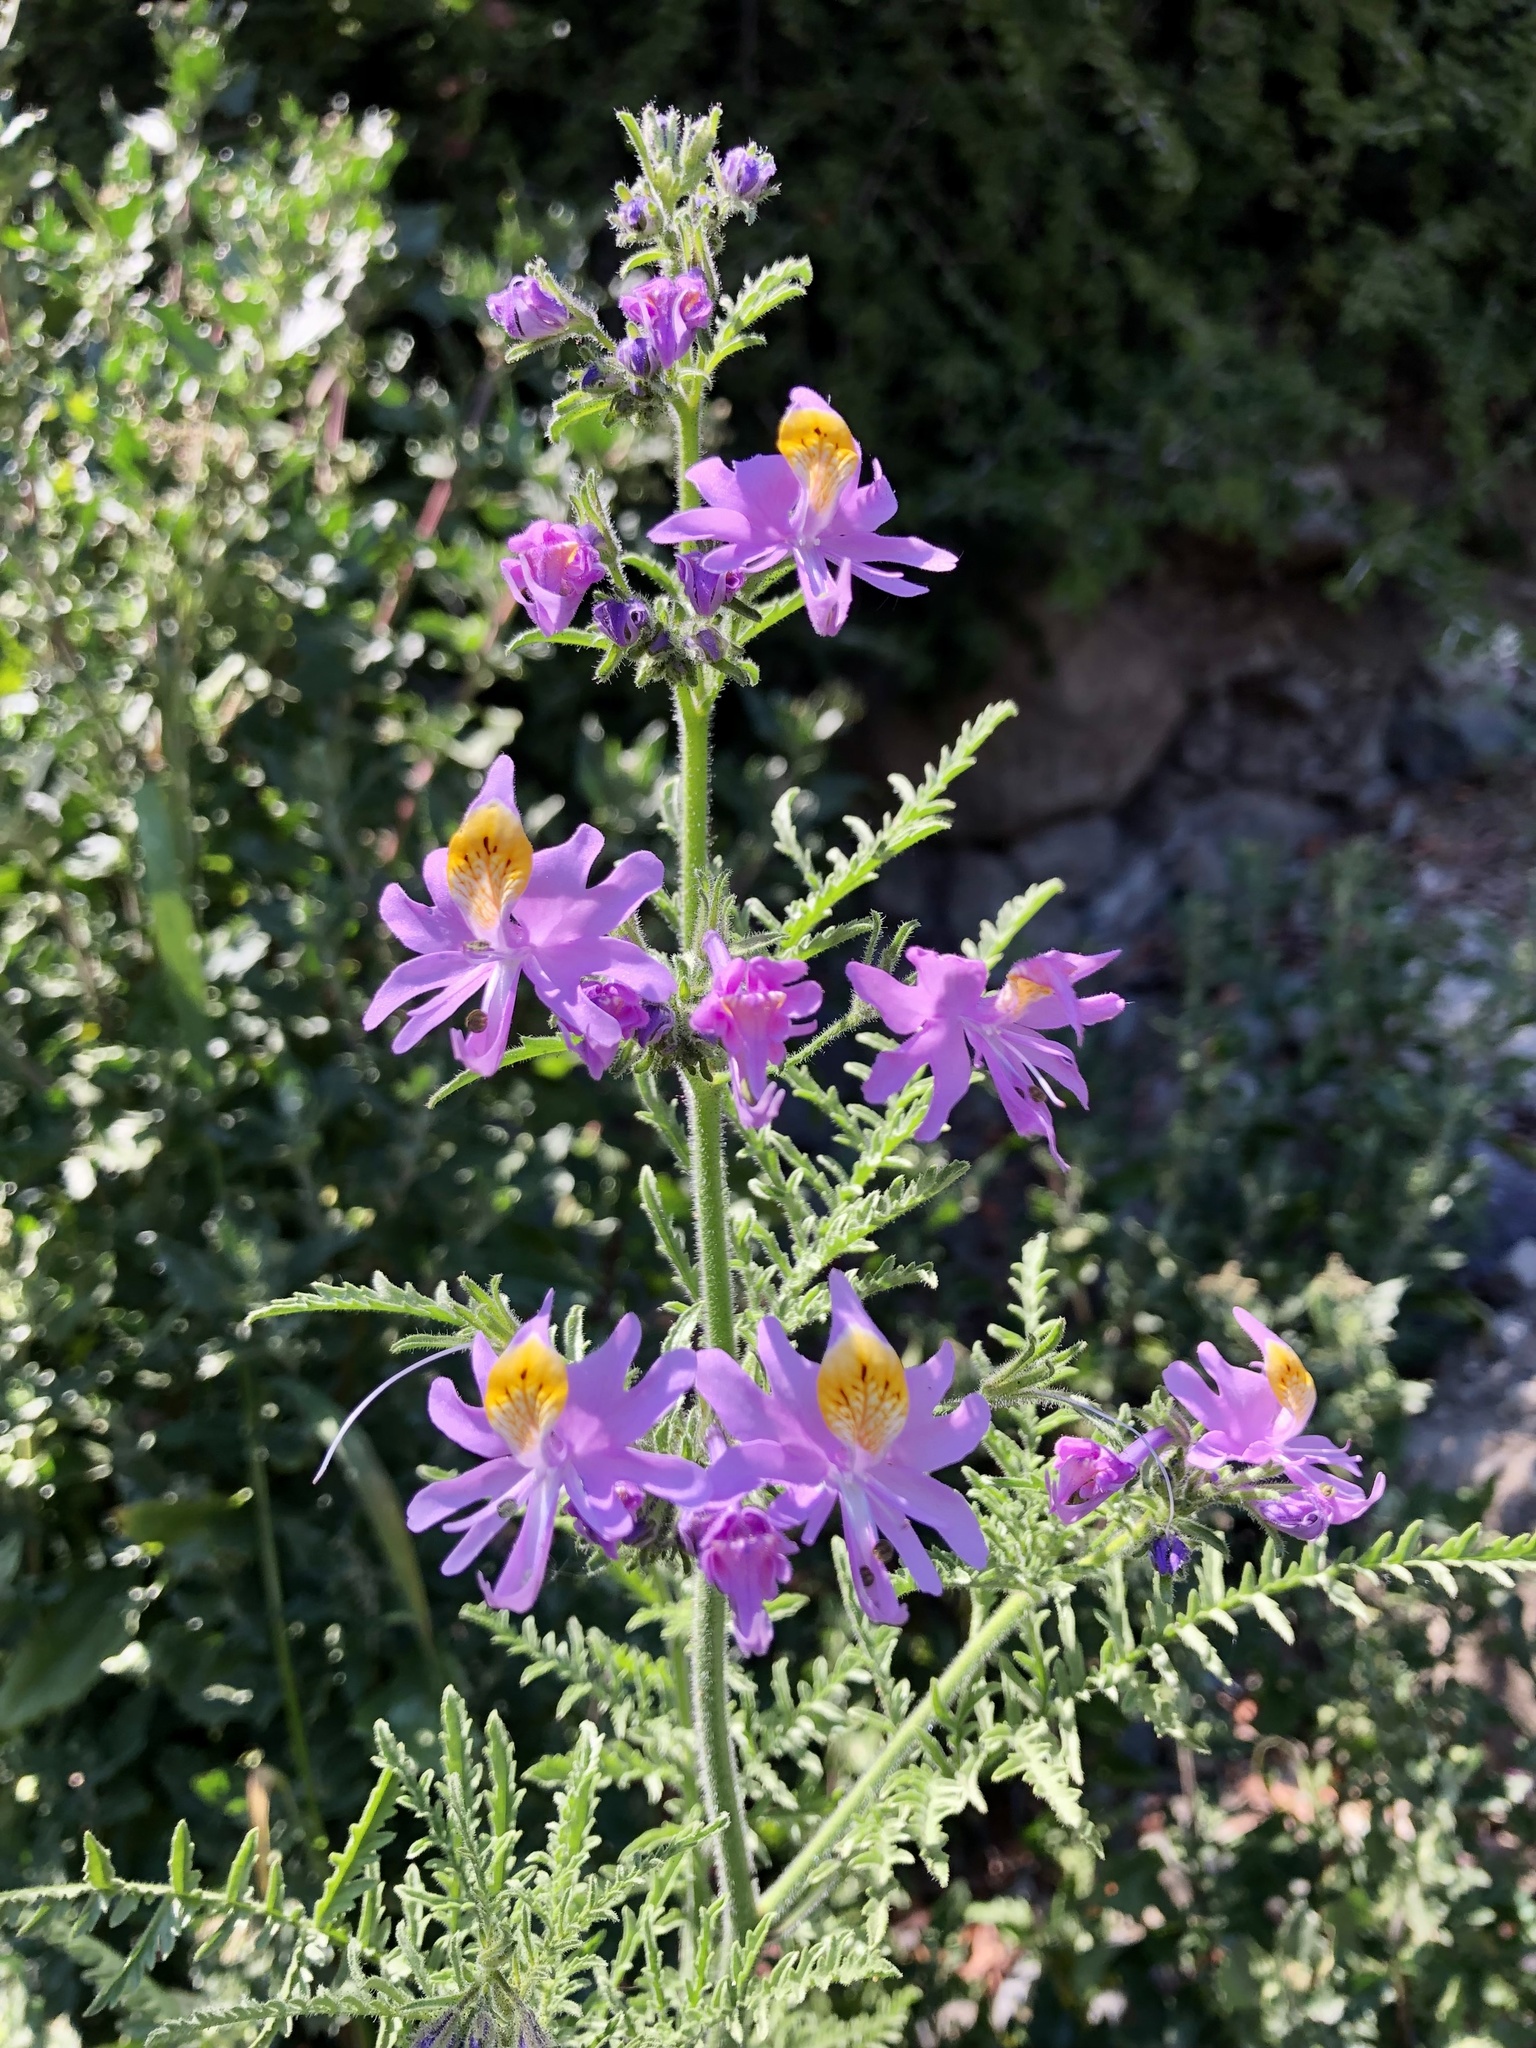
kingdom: Plantae
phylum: Tracheophyta
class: Magnoliopsida
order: Solanales
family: Solanaceae
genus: Schizanthus
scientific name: Schizanthus hookeri
